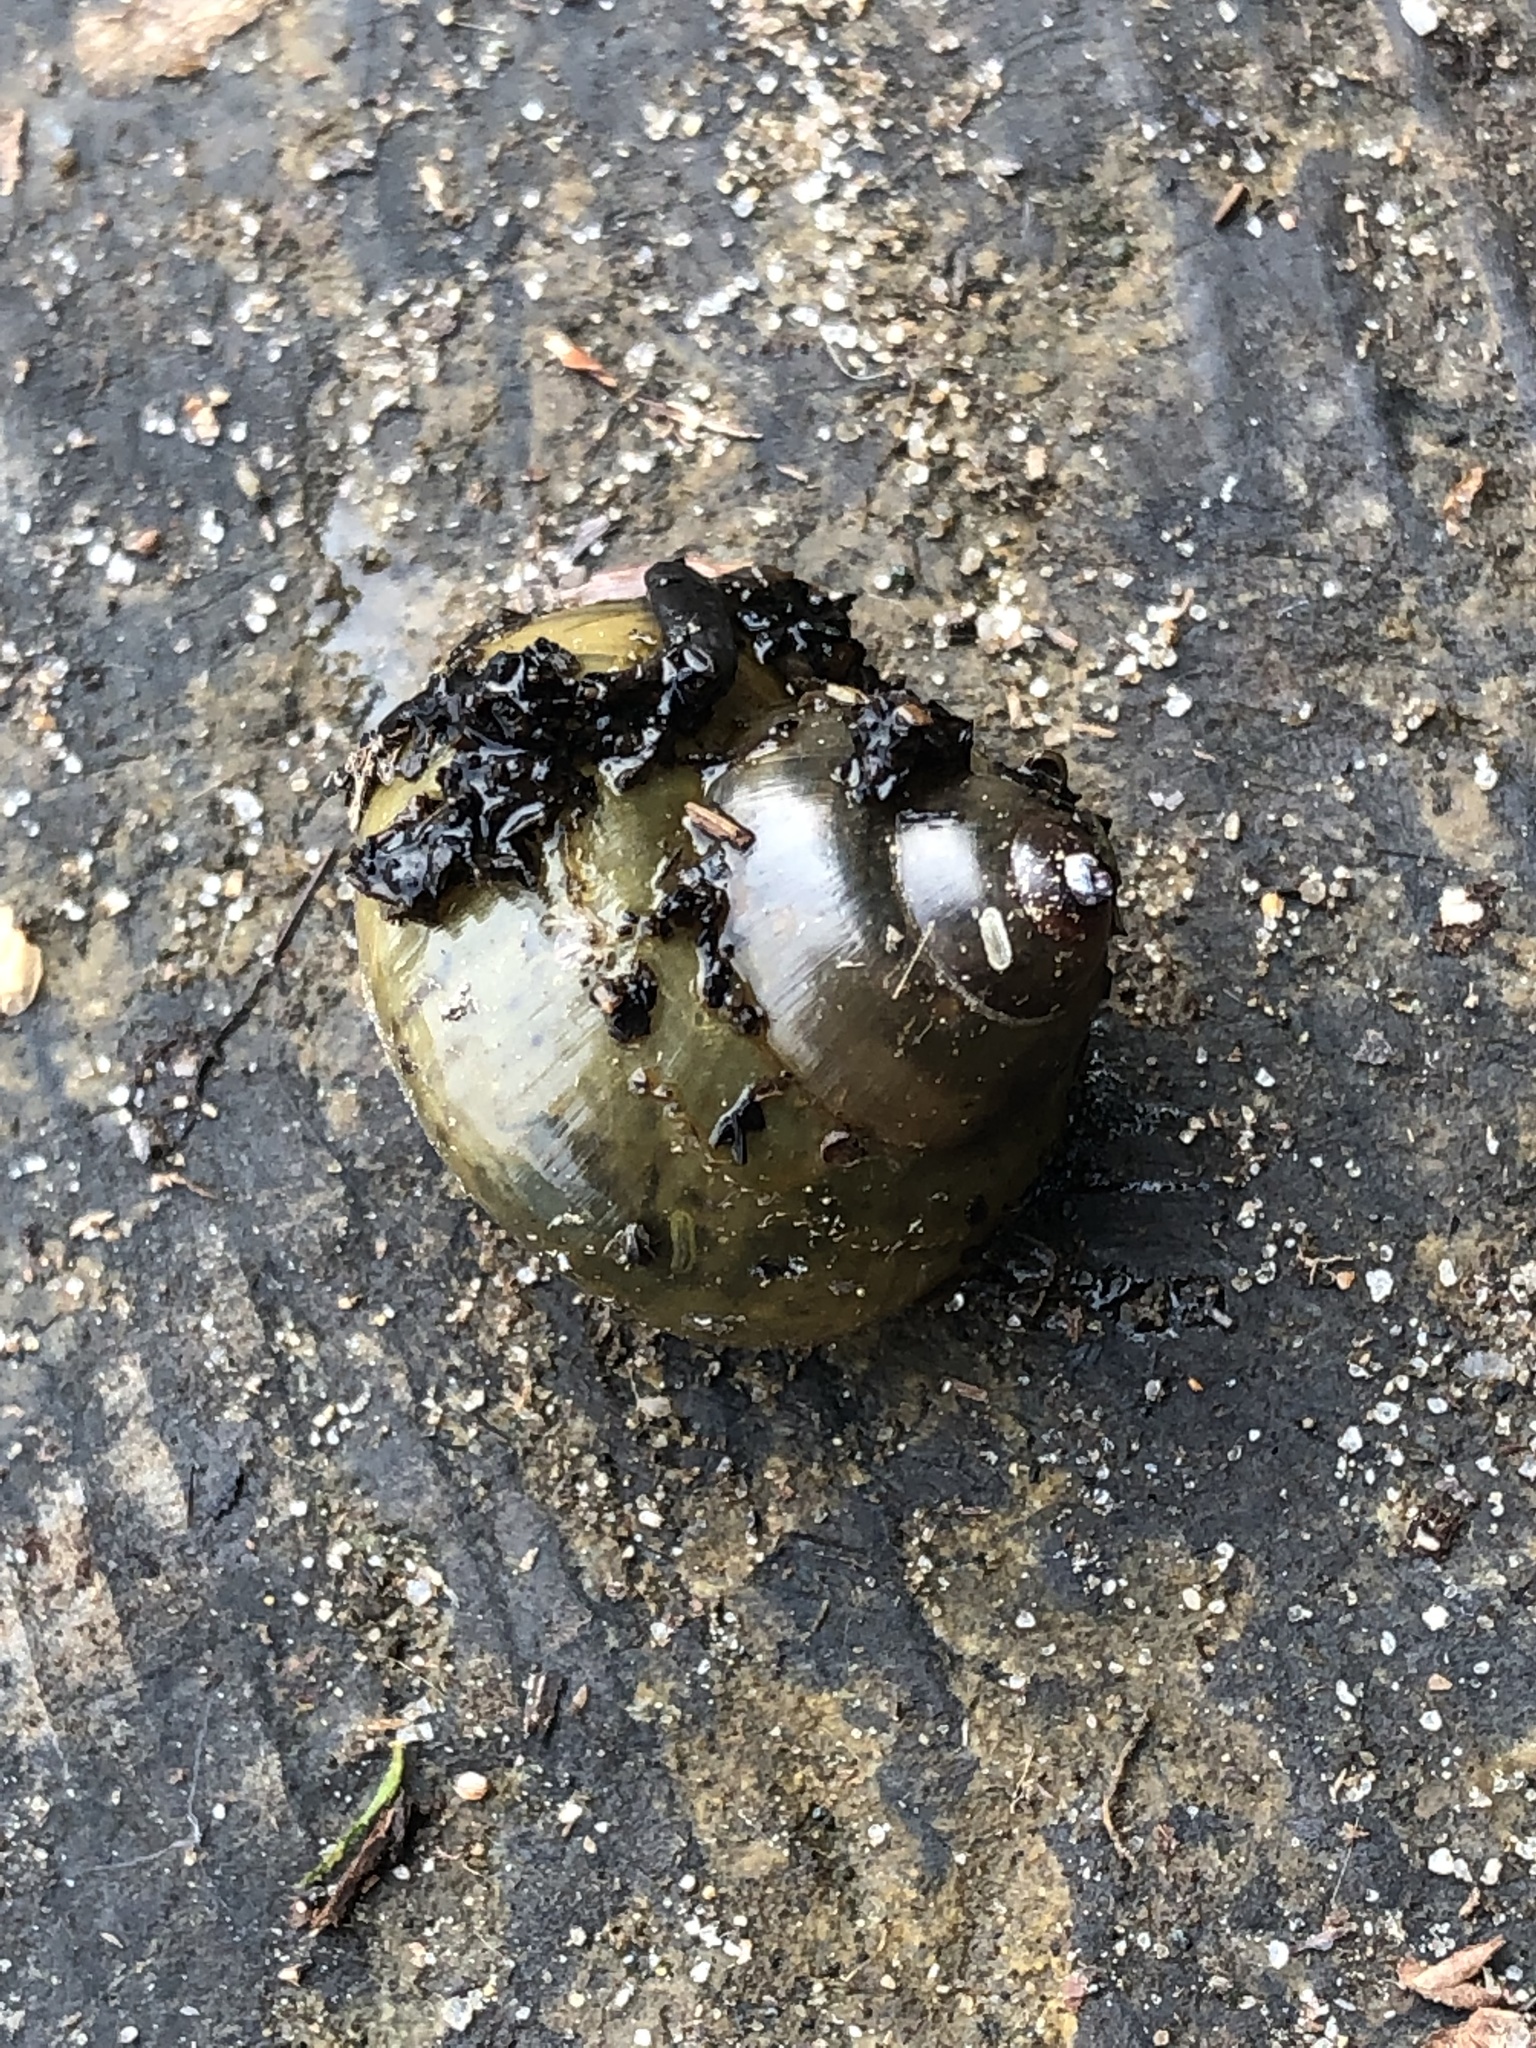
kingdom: Animalia
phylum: Mollusca
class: Gastropoda
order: Architaenioglossa
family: Viviparidae
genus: Cipangopaludina
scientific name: Cipangopaludina chinensis
